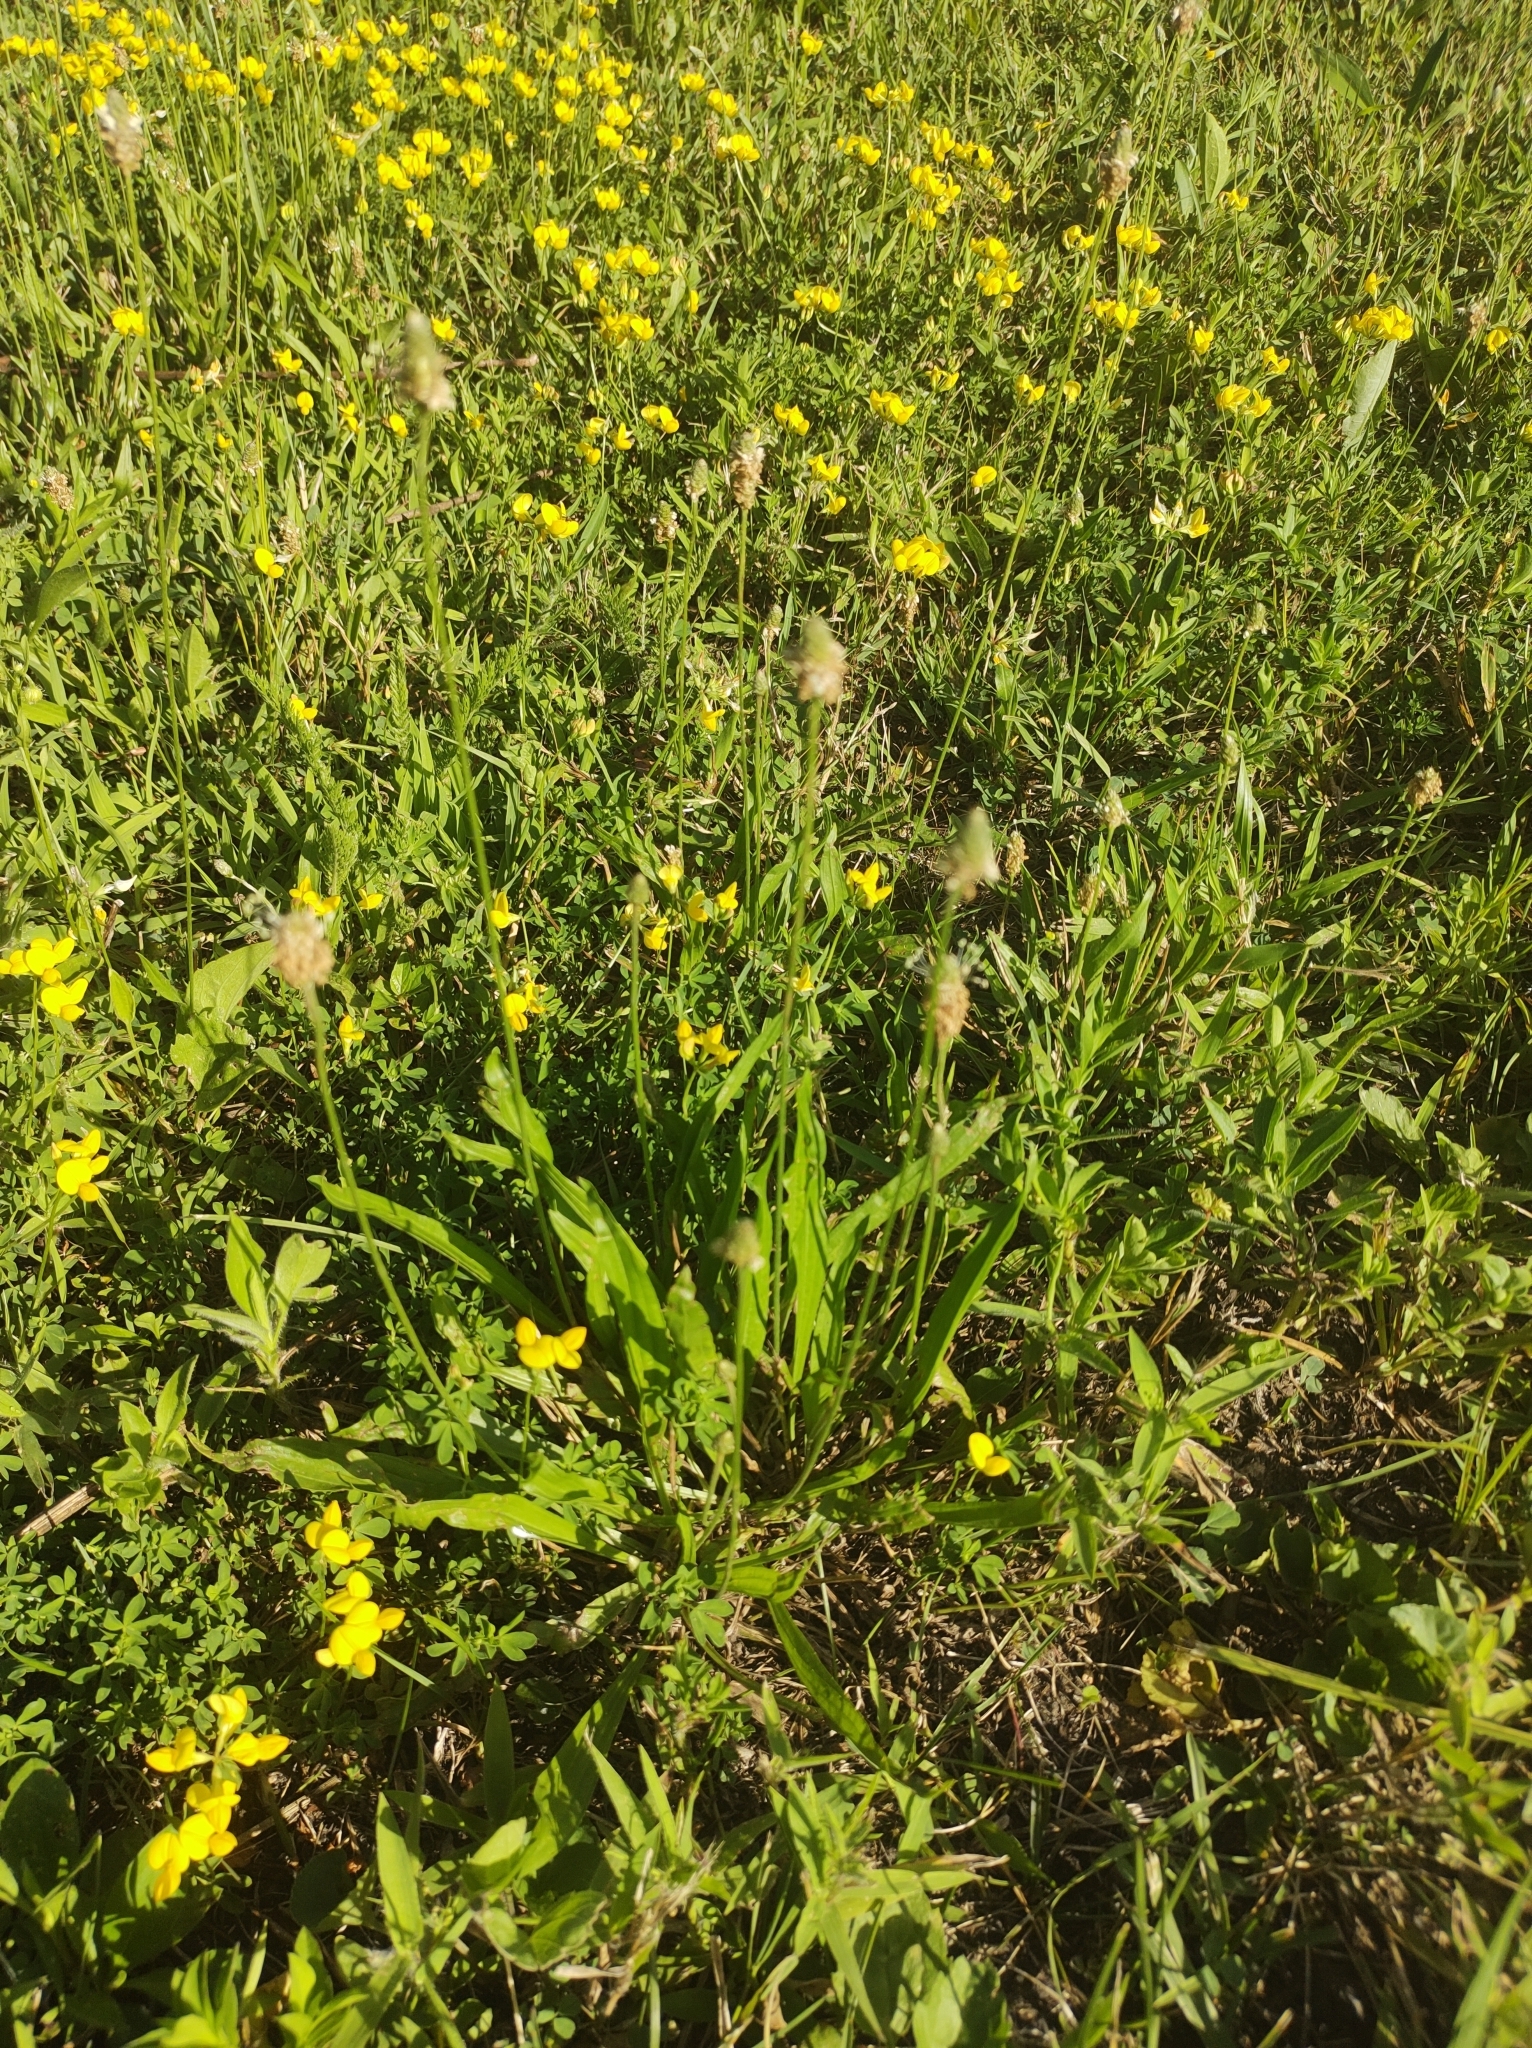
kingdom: Plantae
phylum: Tracheophyta
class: Magnoliopsida
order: Lamiales
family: Plantaginaceae
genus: Plantago
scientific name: Plantago lanceolata
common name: Ribwort plantain
